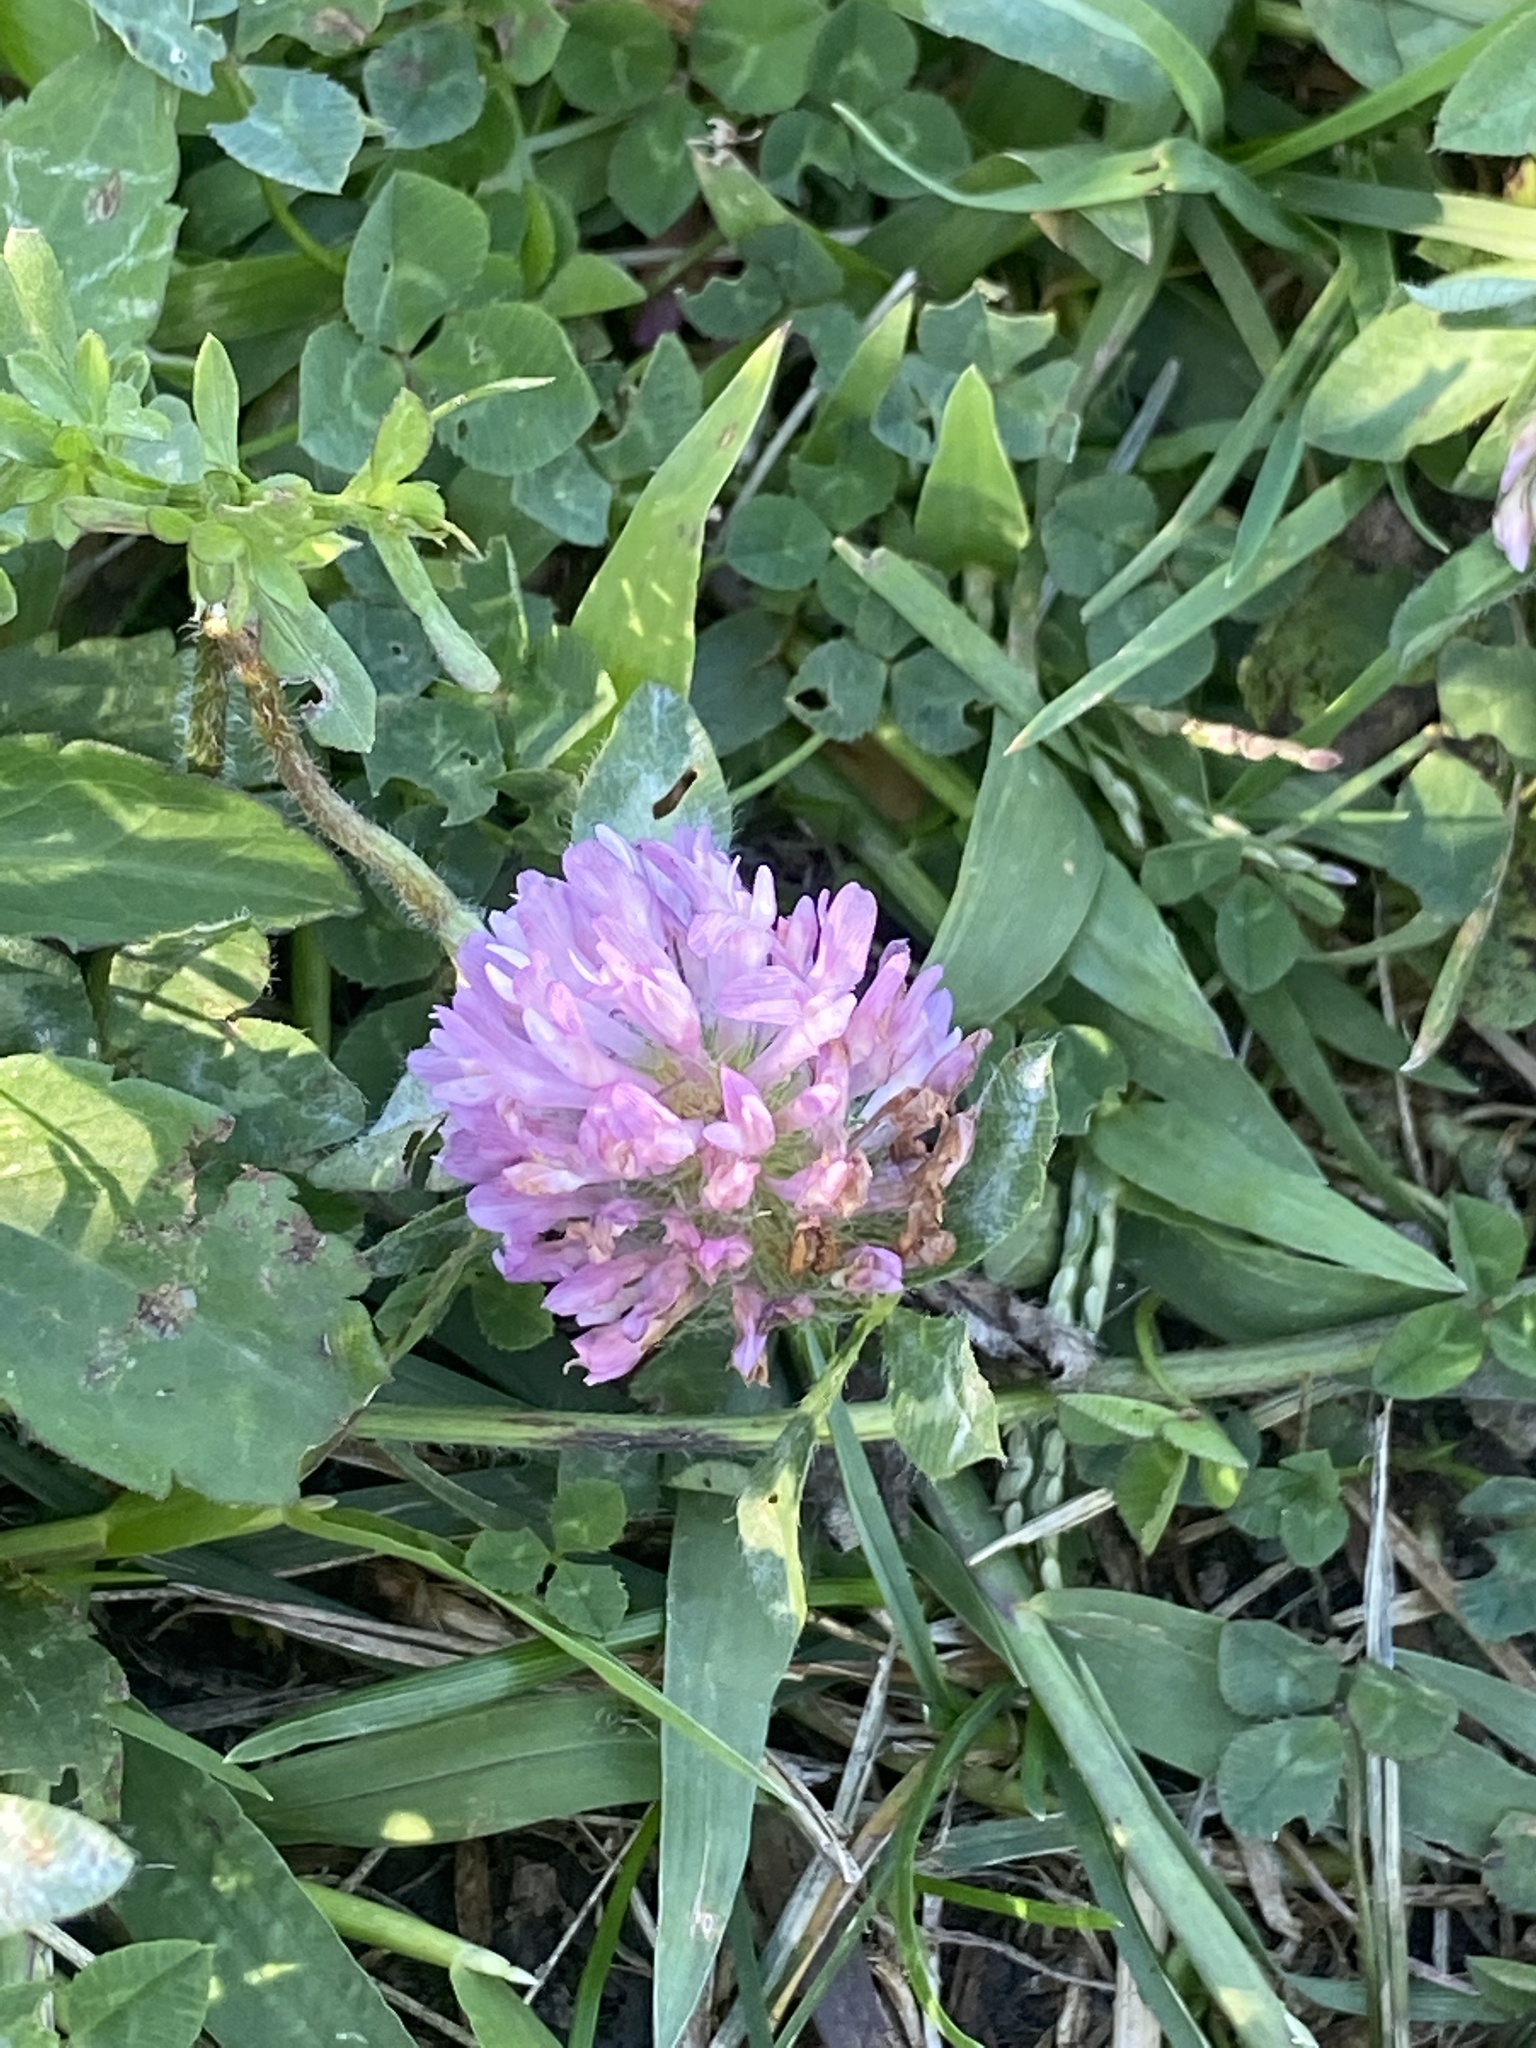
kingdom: Plantae
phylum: Tracheophyta
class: Magnoliopsida
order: Fabales
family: Fabaceae
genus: Trifolium
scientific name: Trifolium pratense
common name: Red clover
